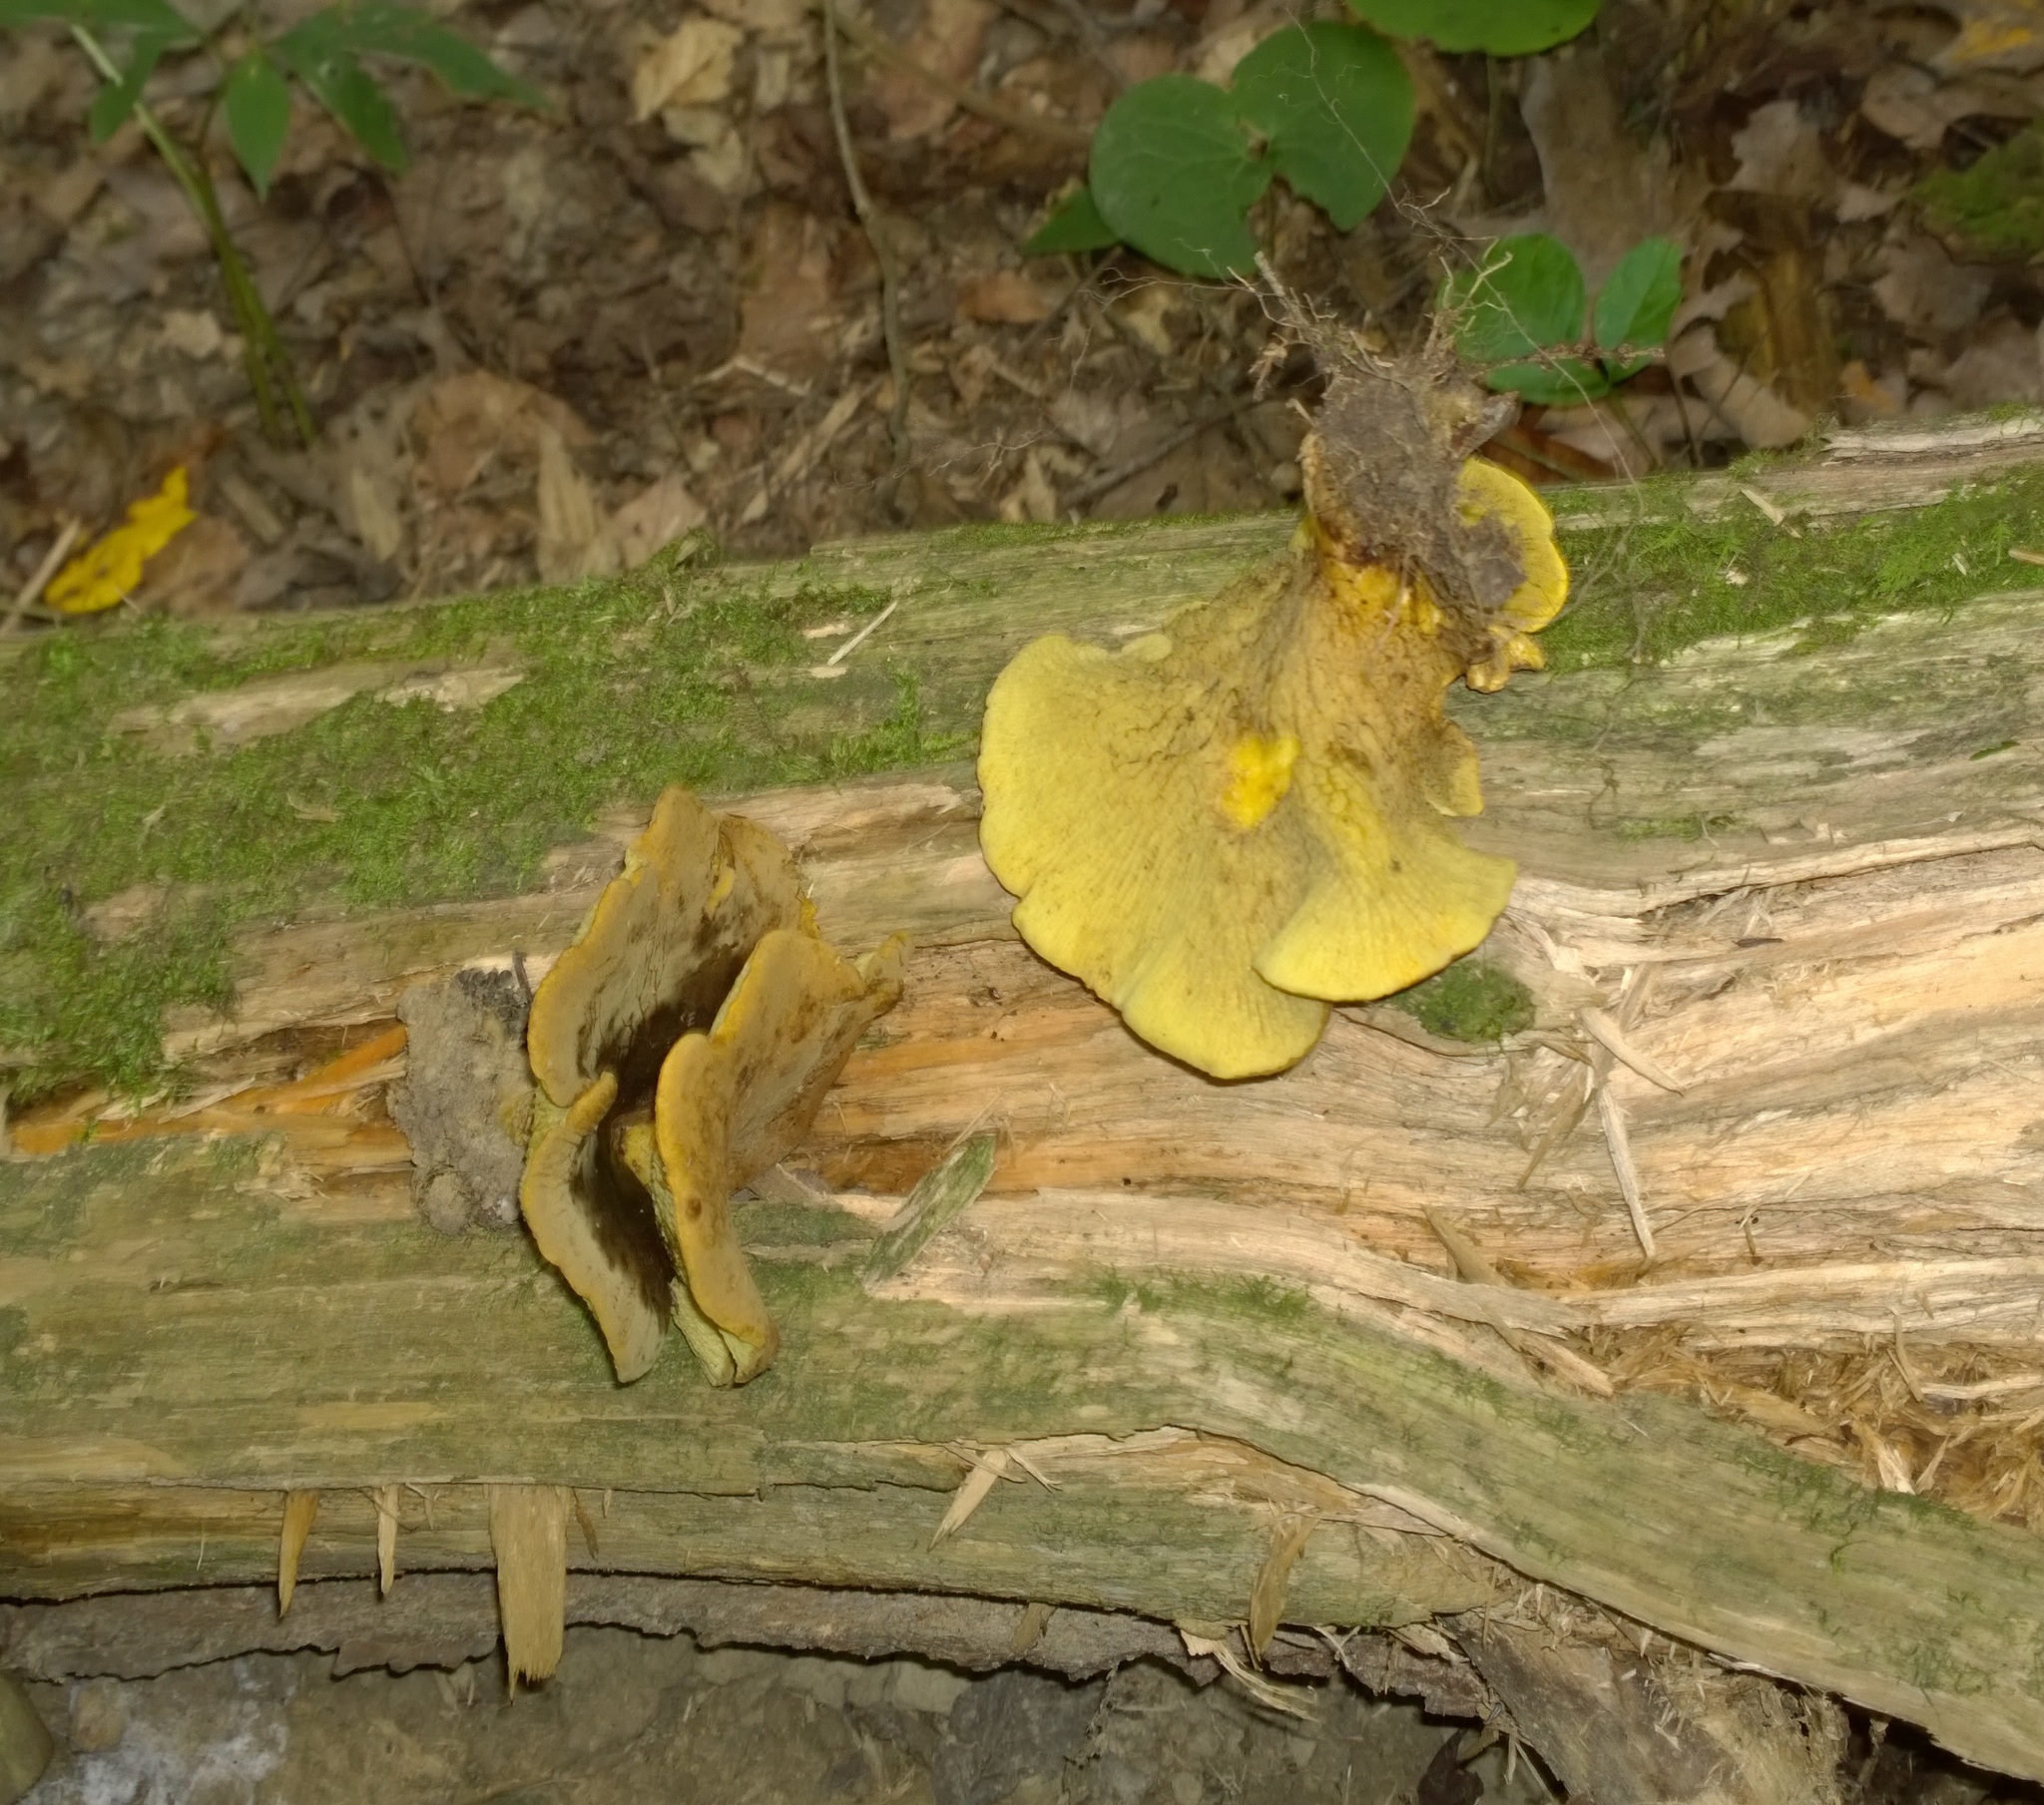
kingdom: Fungi
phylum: Basidiomycota
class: Agaricomycetes
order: Boletales
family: Boletinellaceae
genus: Boletinellus
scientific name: Boletinellus merulioides
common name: Ash tree bolete
